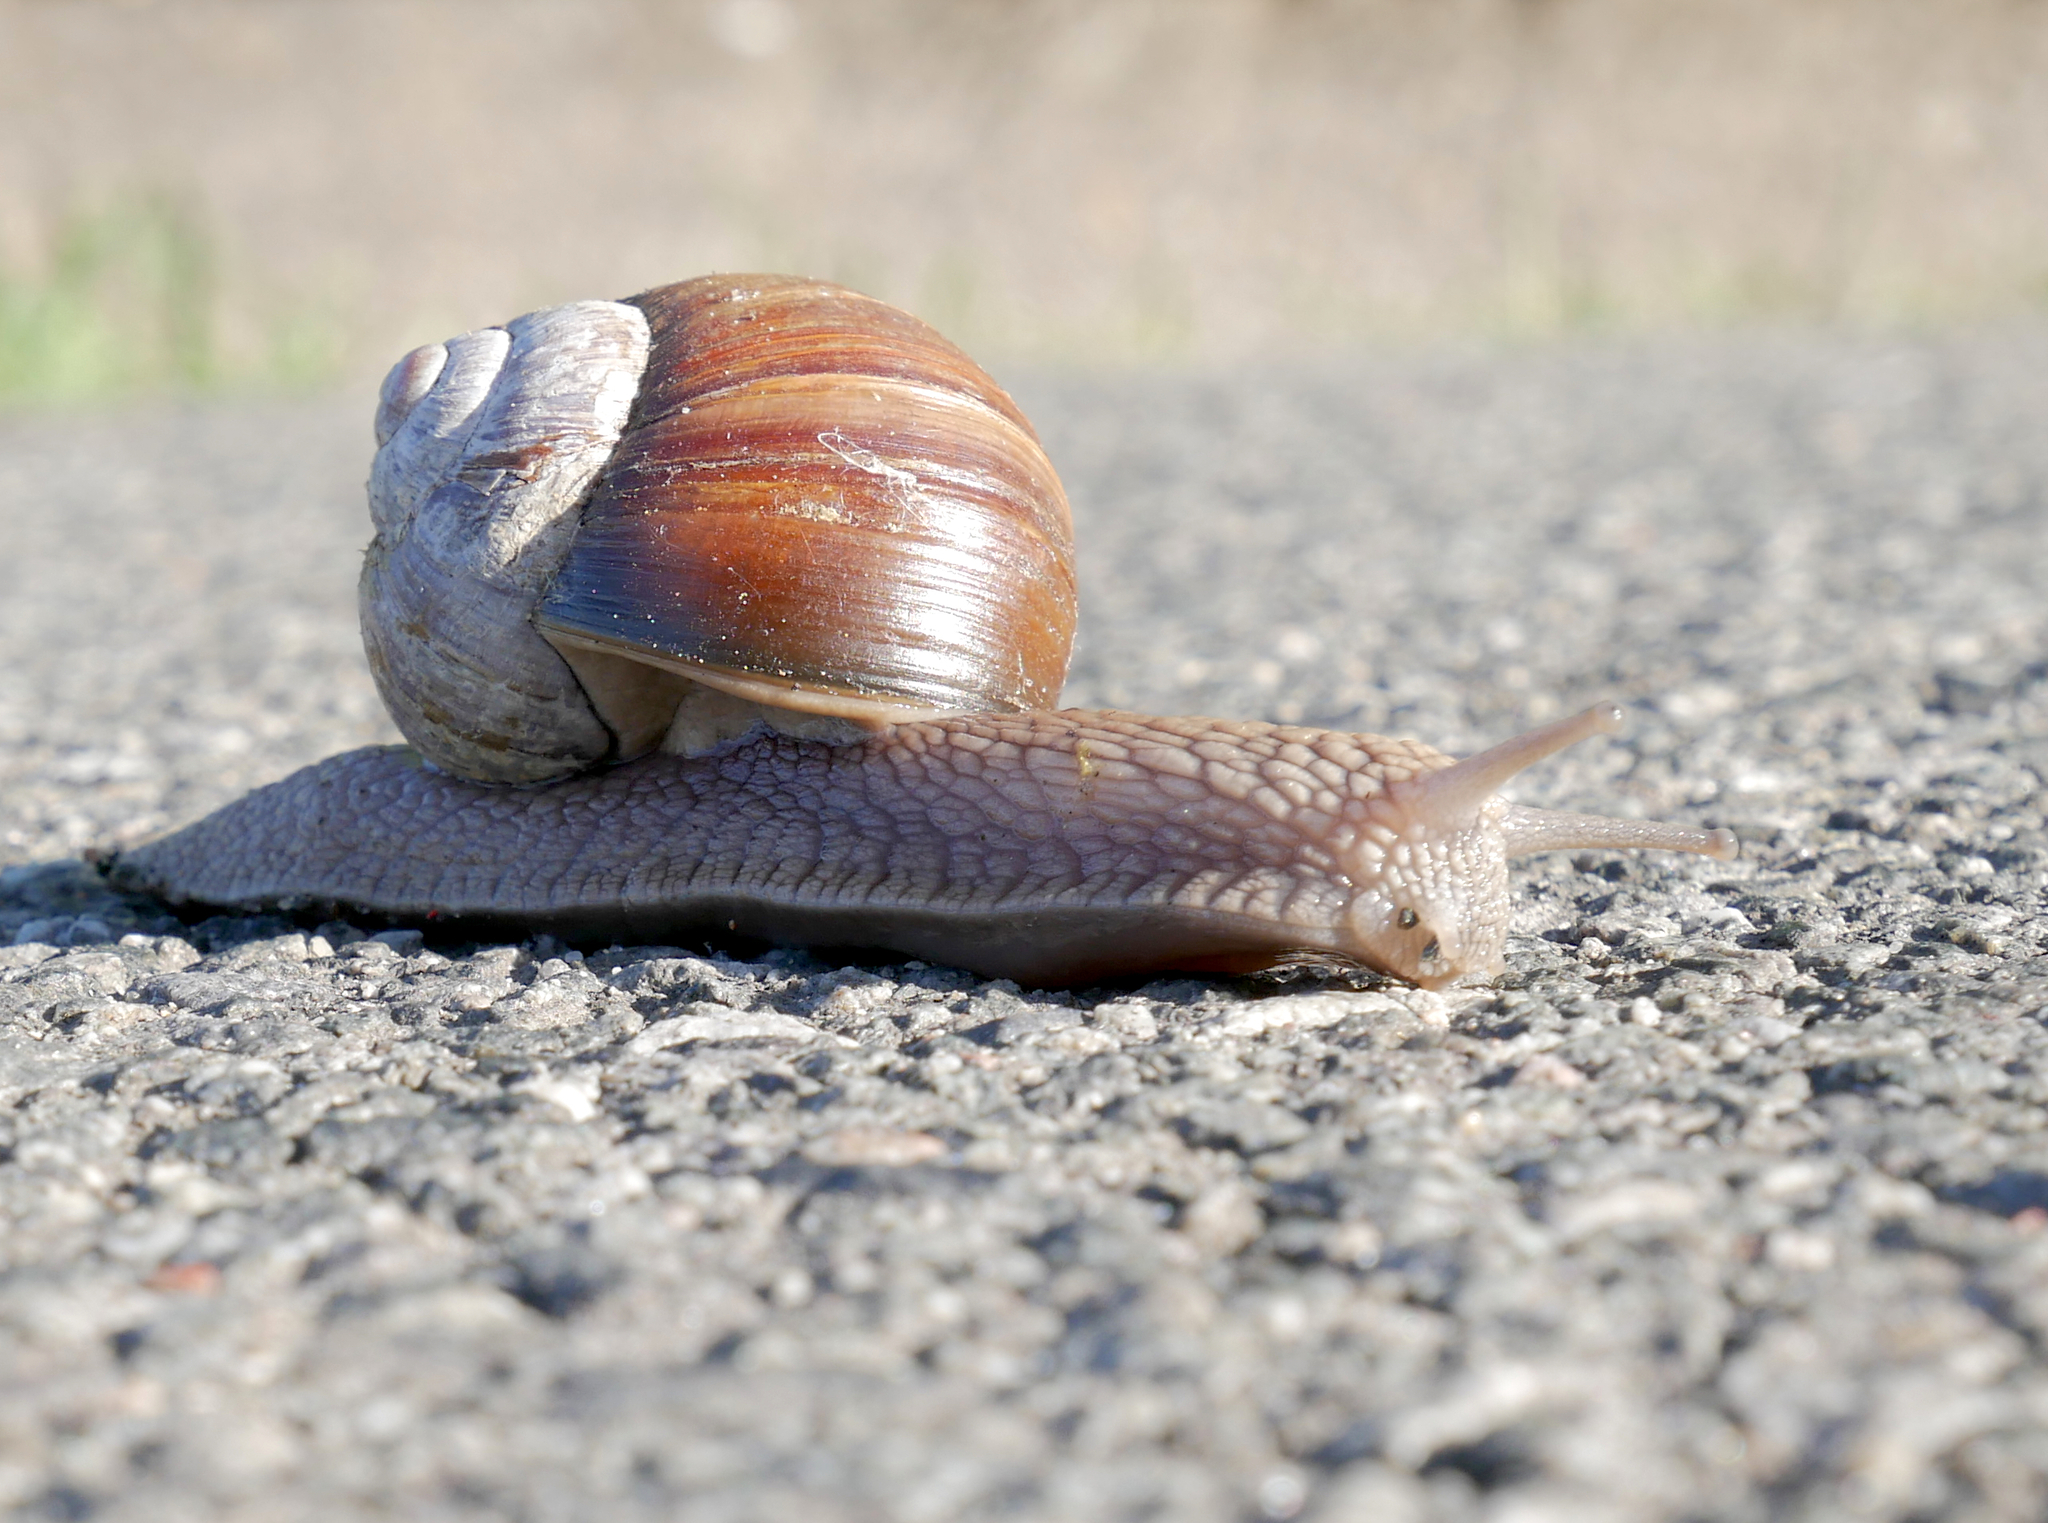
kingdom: Animalia
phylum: Mollusca
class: Gastropoda
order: Stylommatophora
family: Helicidae
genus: Helix
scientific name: Helix pomatia
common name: Roman snail
